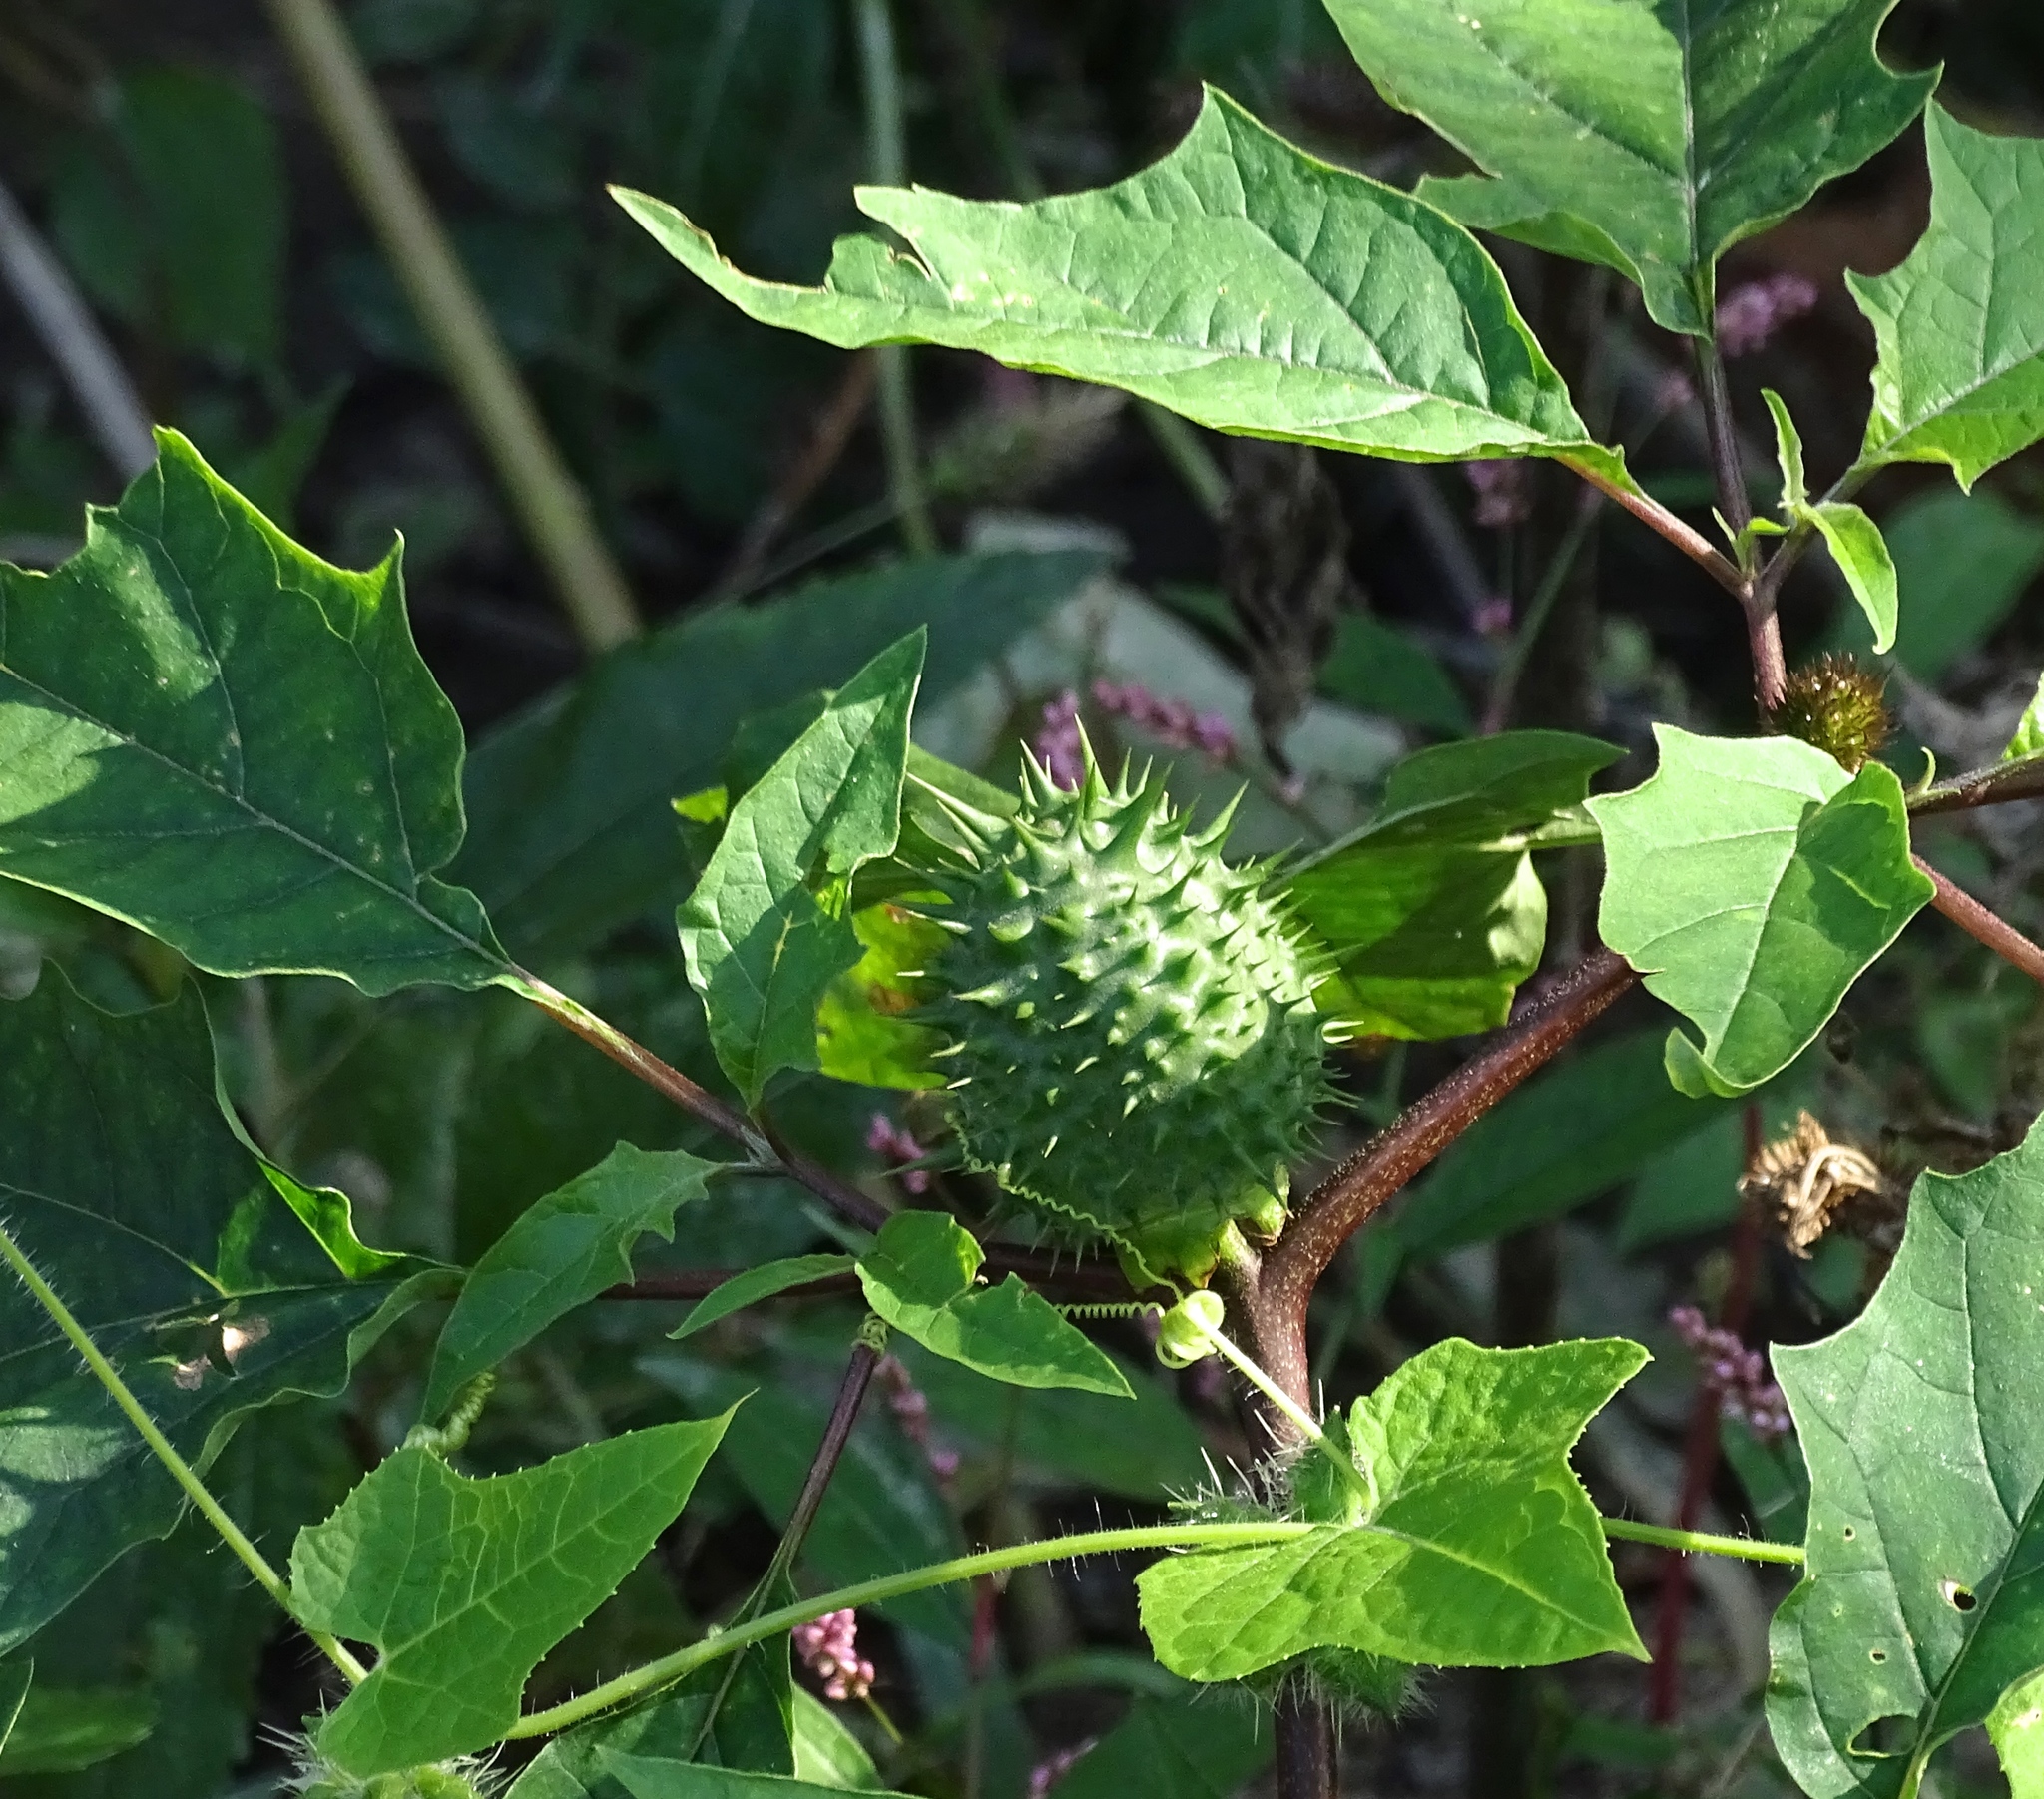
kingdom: Plantae
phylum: Tracheophyta
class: Magnoliopsida
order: Solanales
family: Solanaceae
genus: Datura
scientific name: Datura stramonium
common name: Thorn-apple
